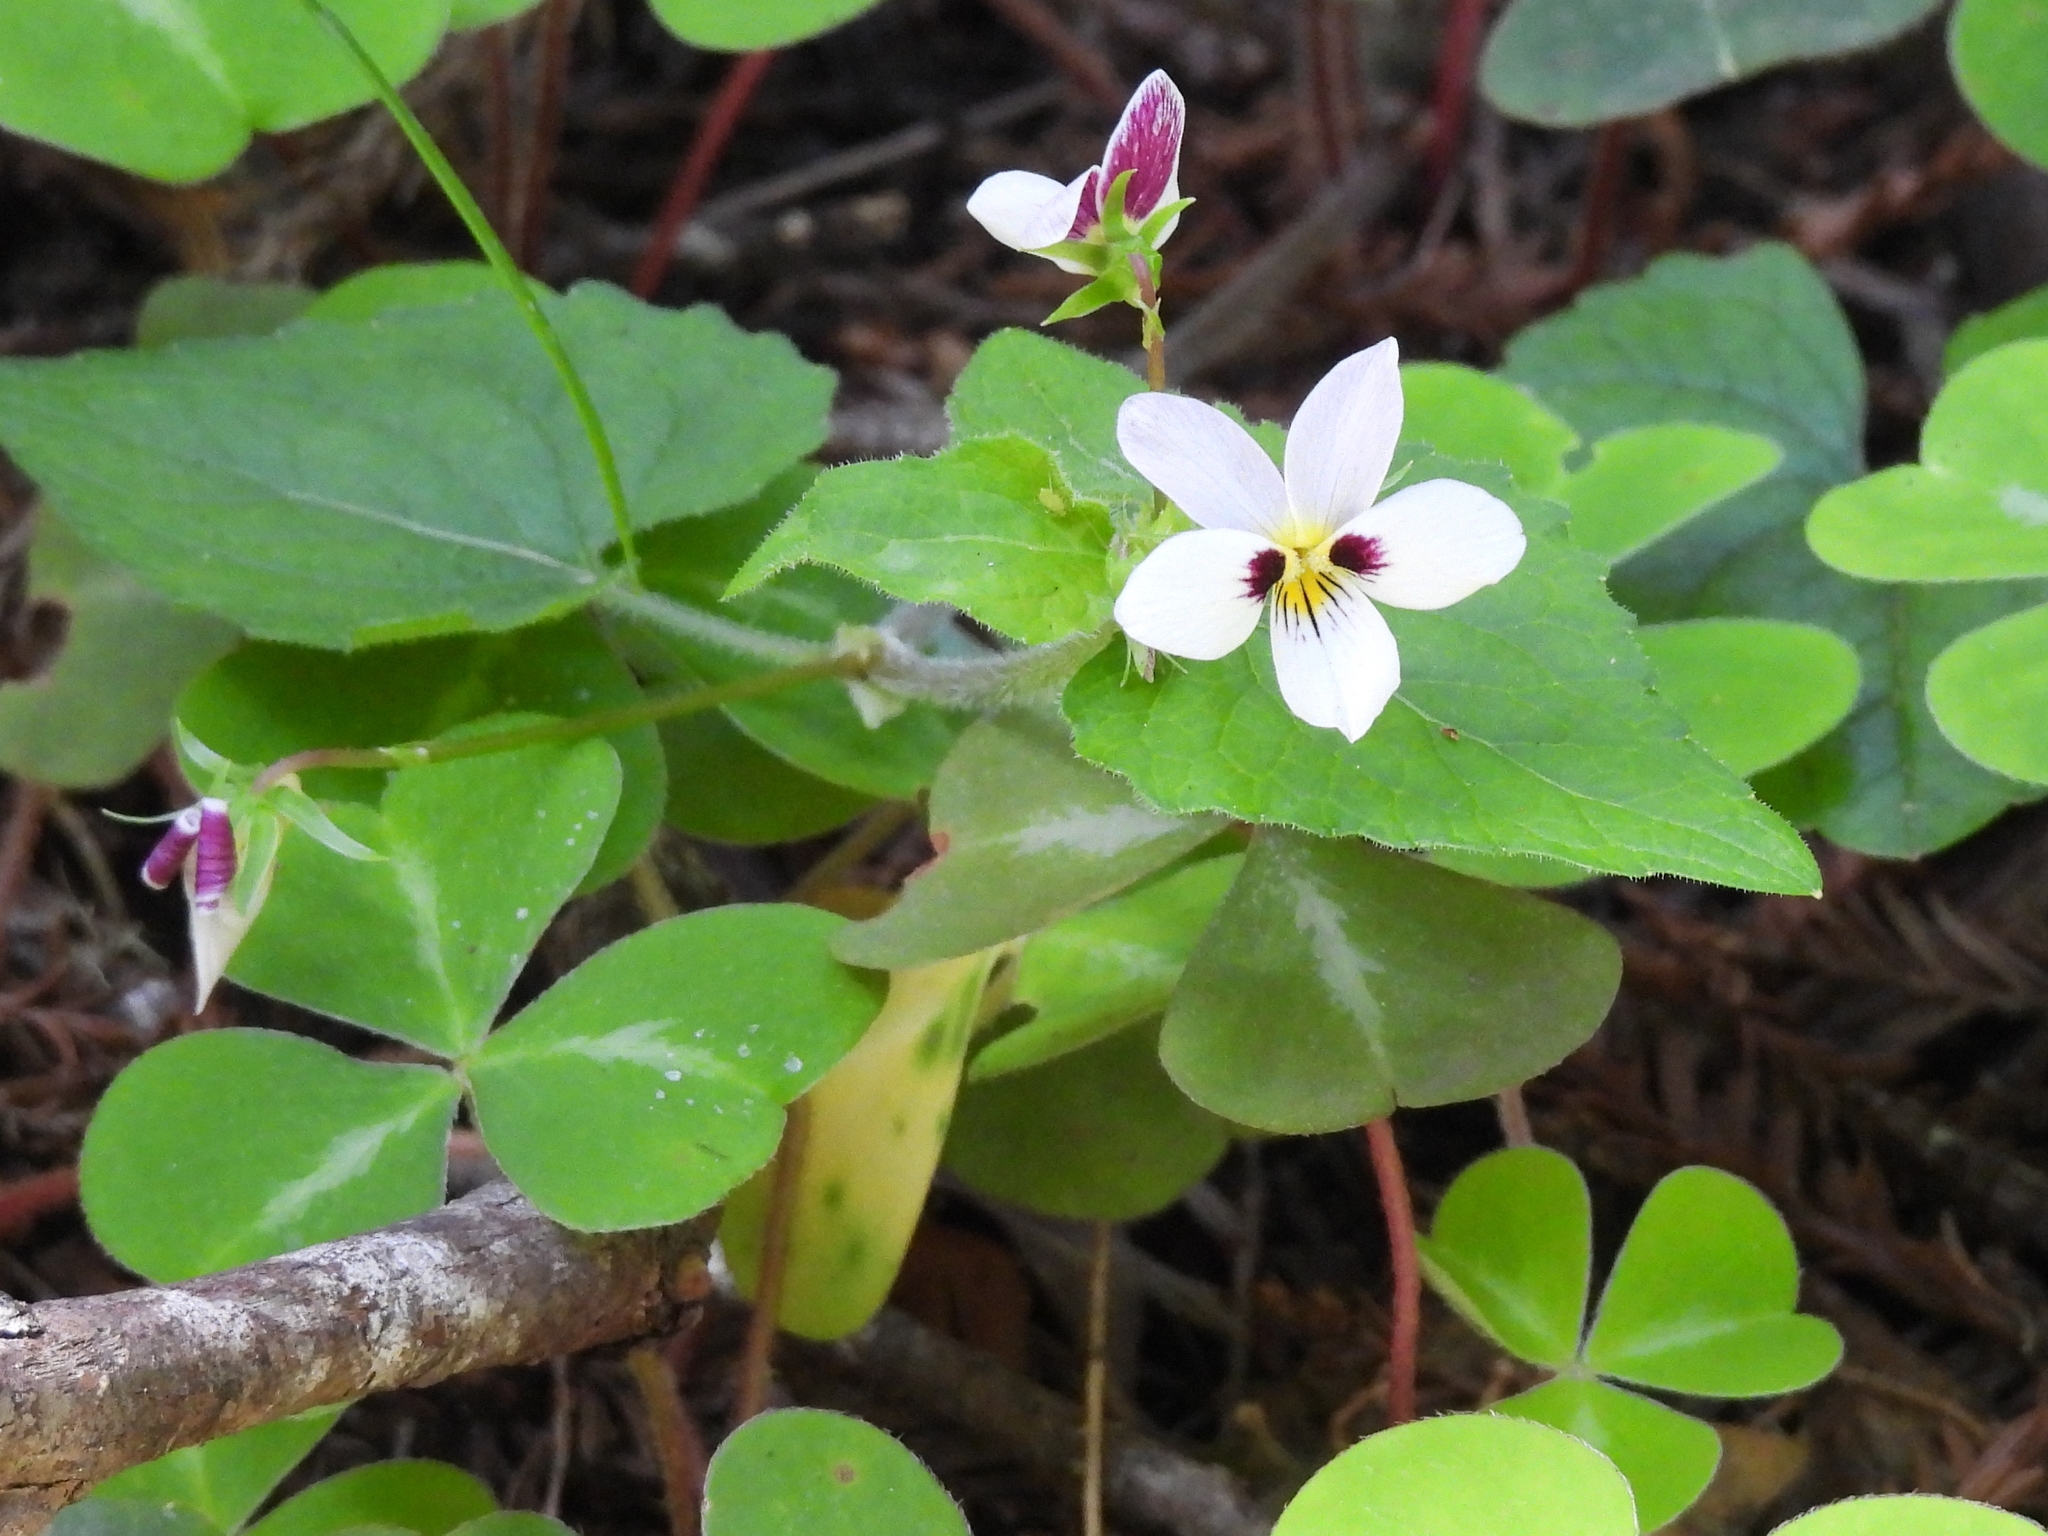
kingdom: Plantae
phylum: Tracheophyta
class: Magnoliopsida
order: Malpighiales
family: Violaceae
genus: Viola
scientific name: Viola ocellata
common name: Western heart's ease
